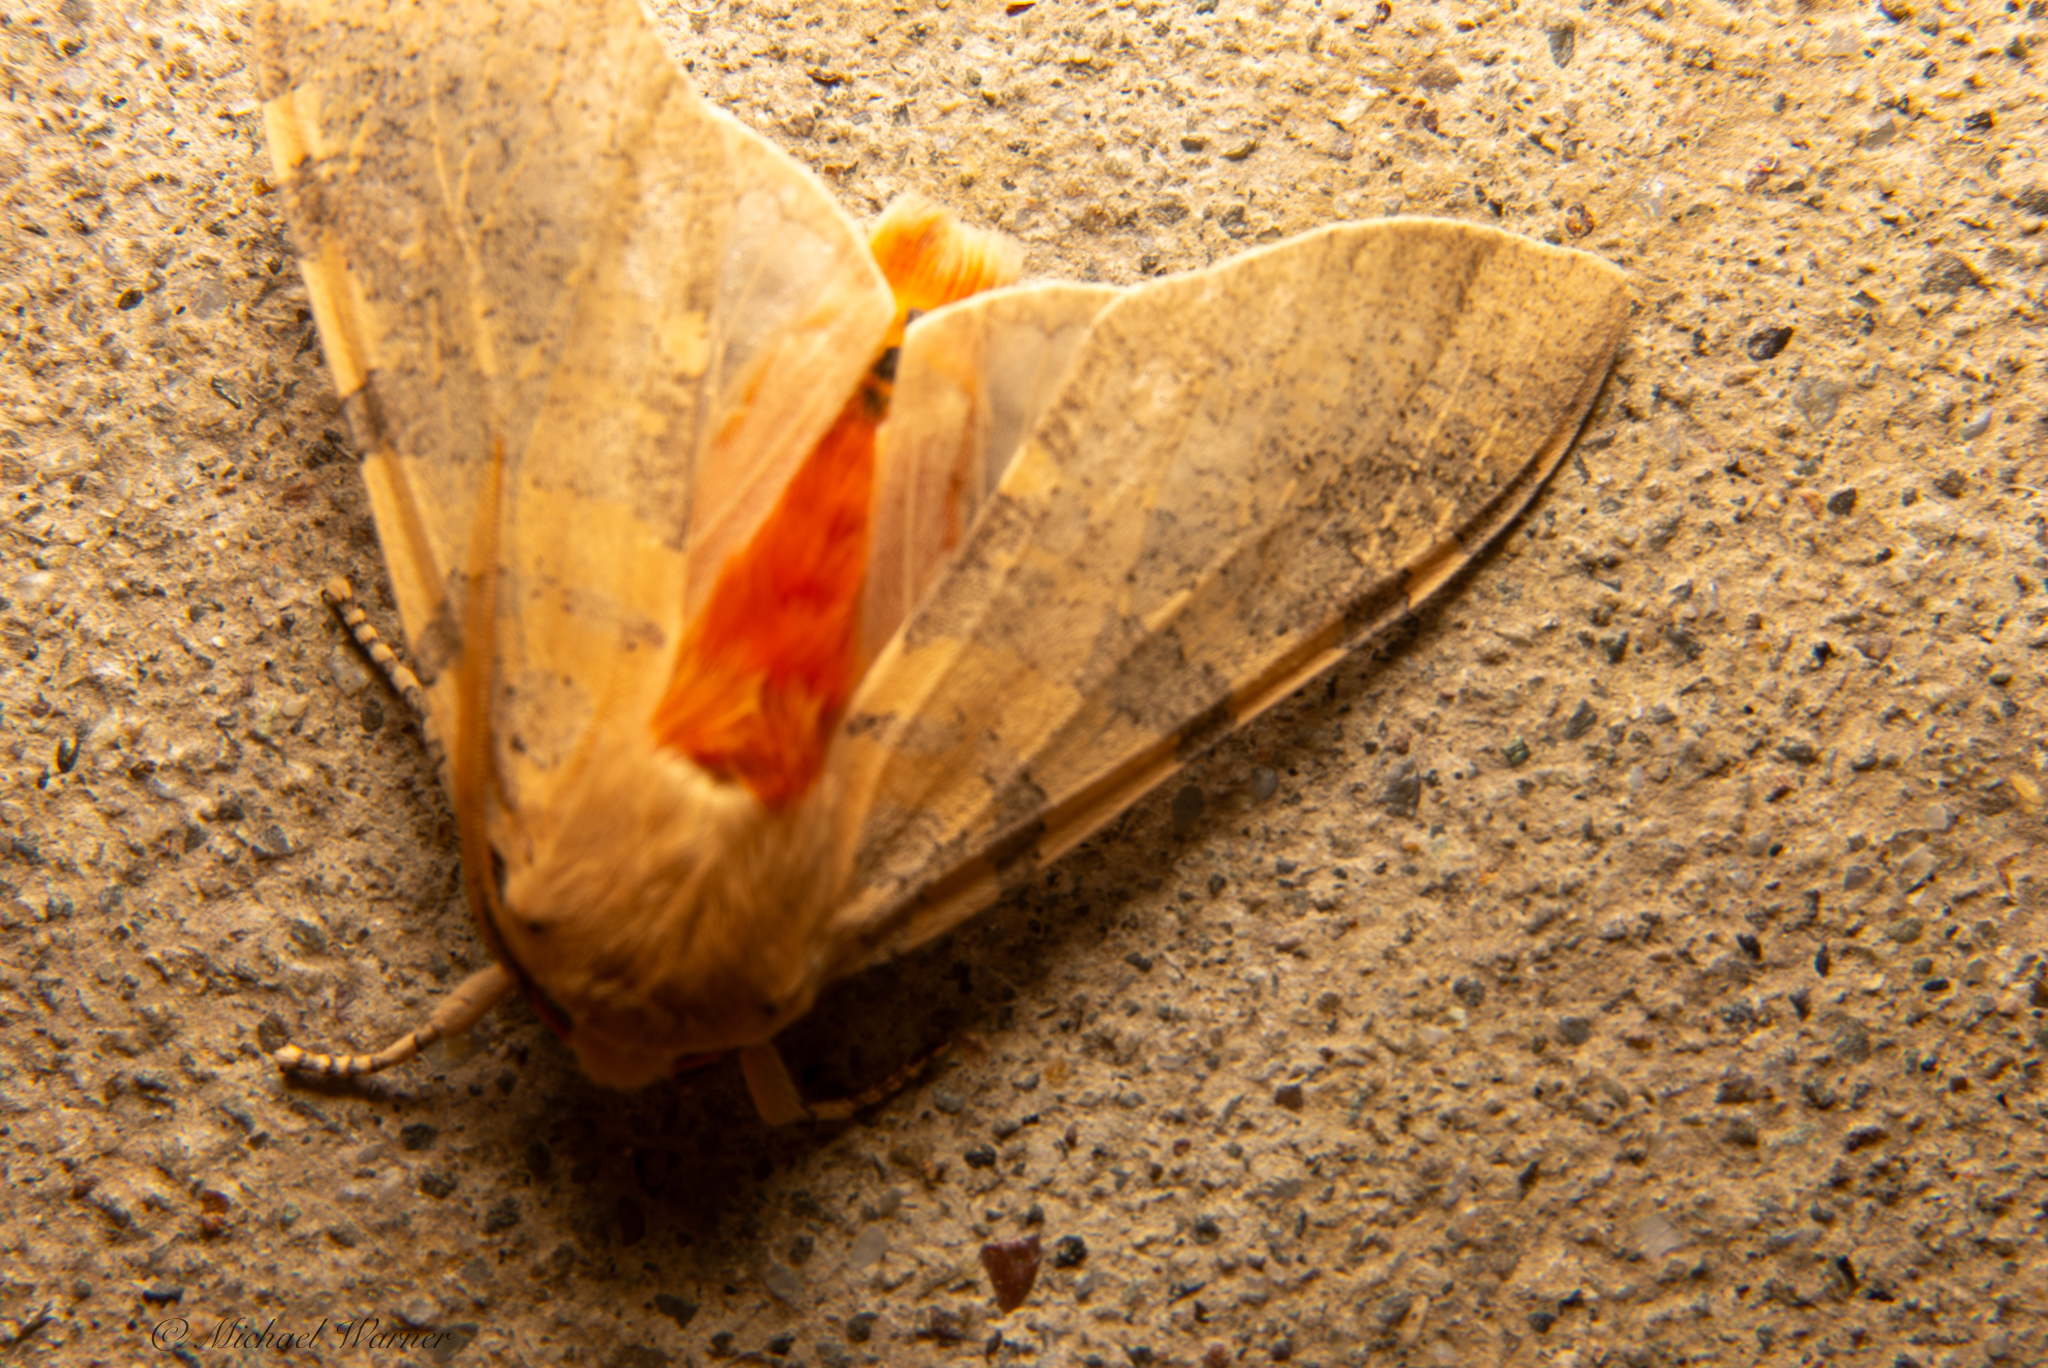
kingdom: Animalia
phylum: Arthropoda
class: Insecta
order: Lepidoptera
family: Erebidae
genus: Hemihyalea
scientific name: Hemihyalea edwardsii
